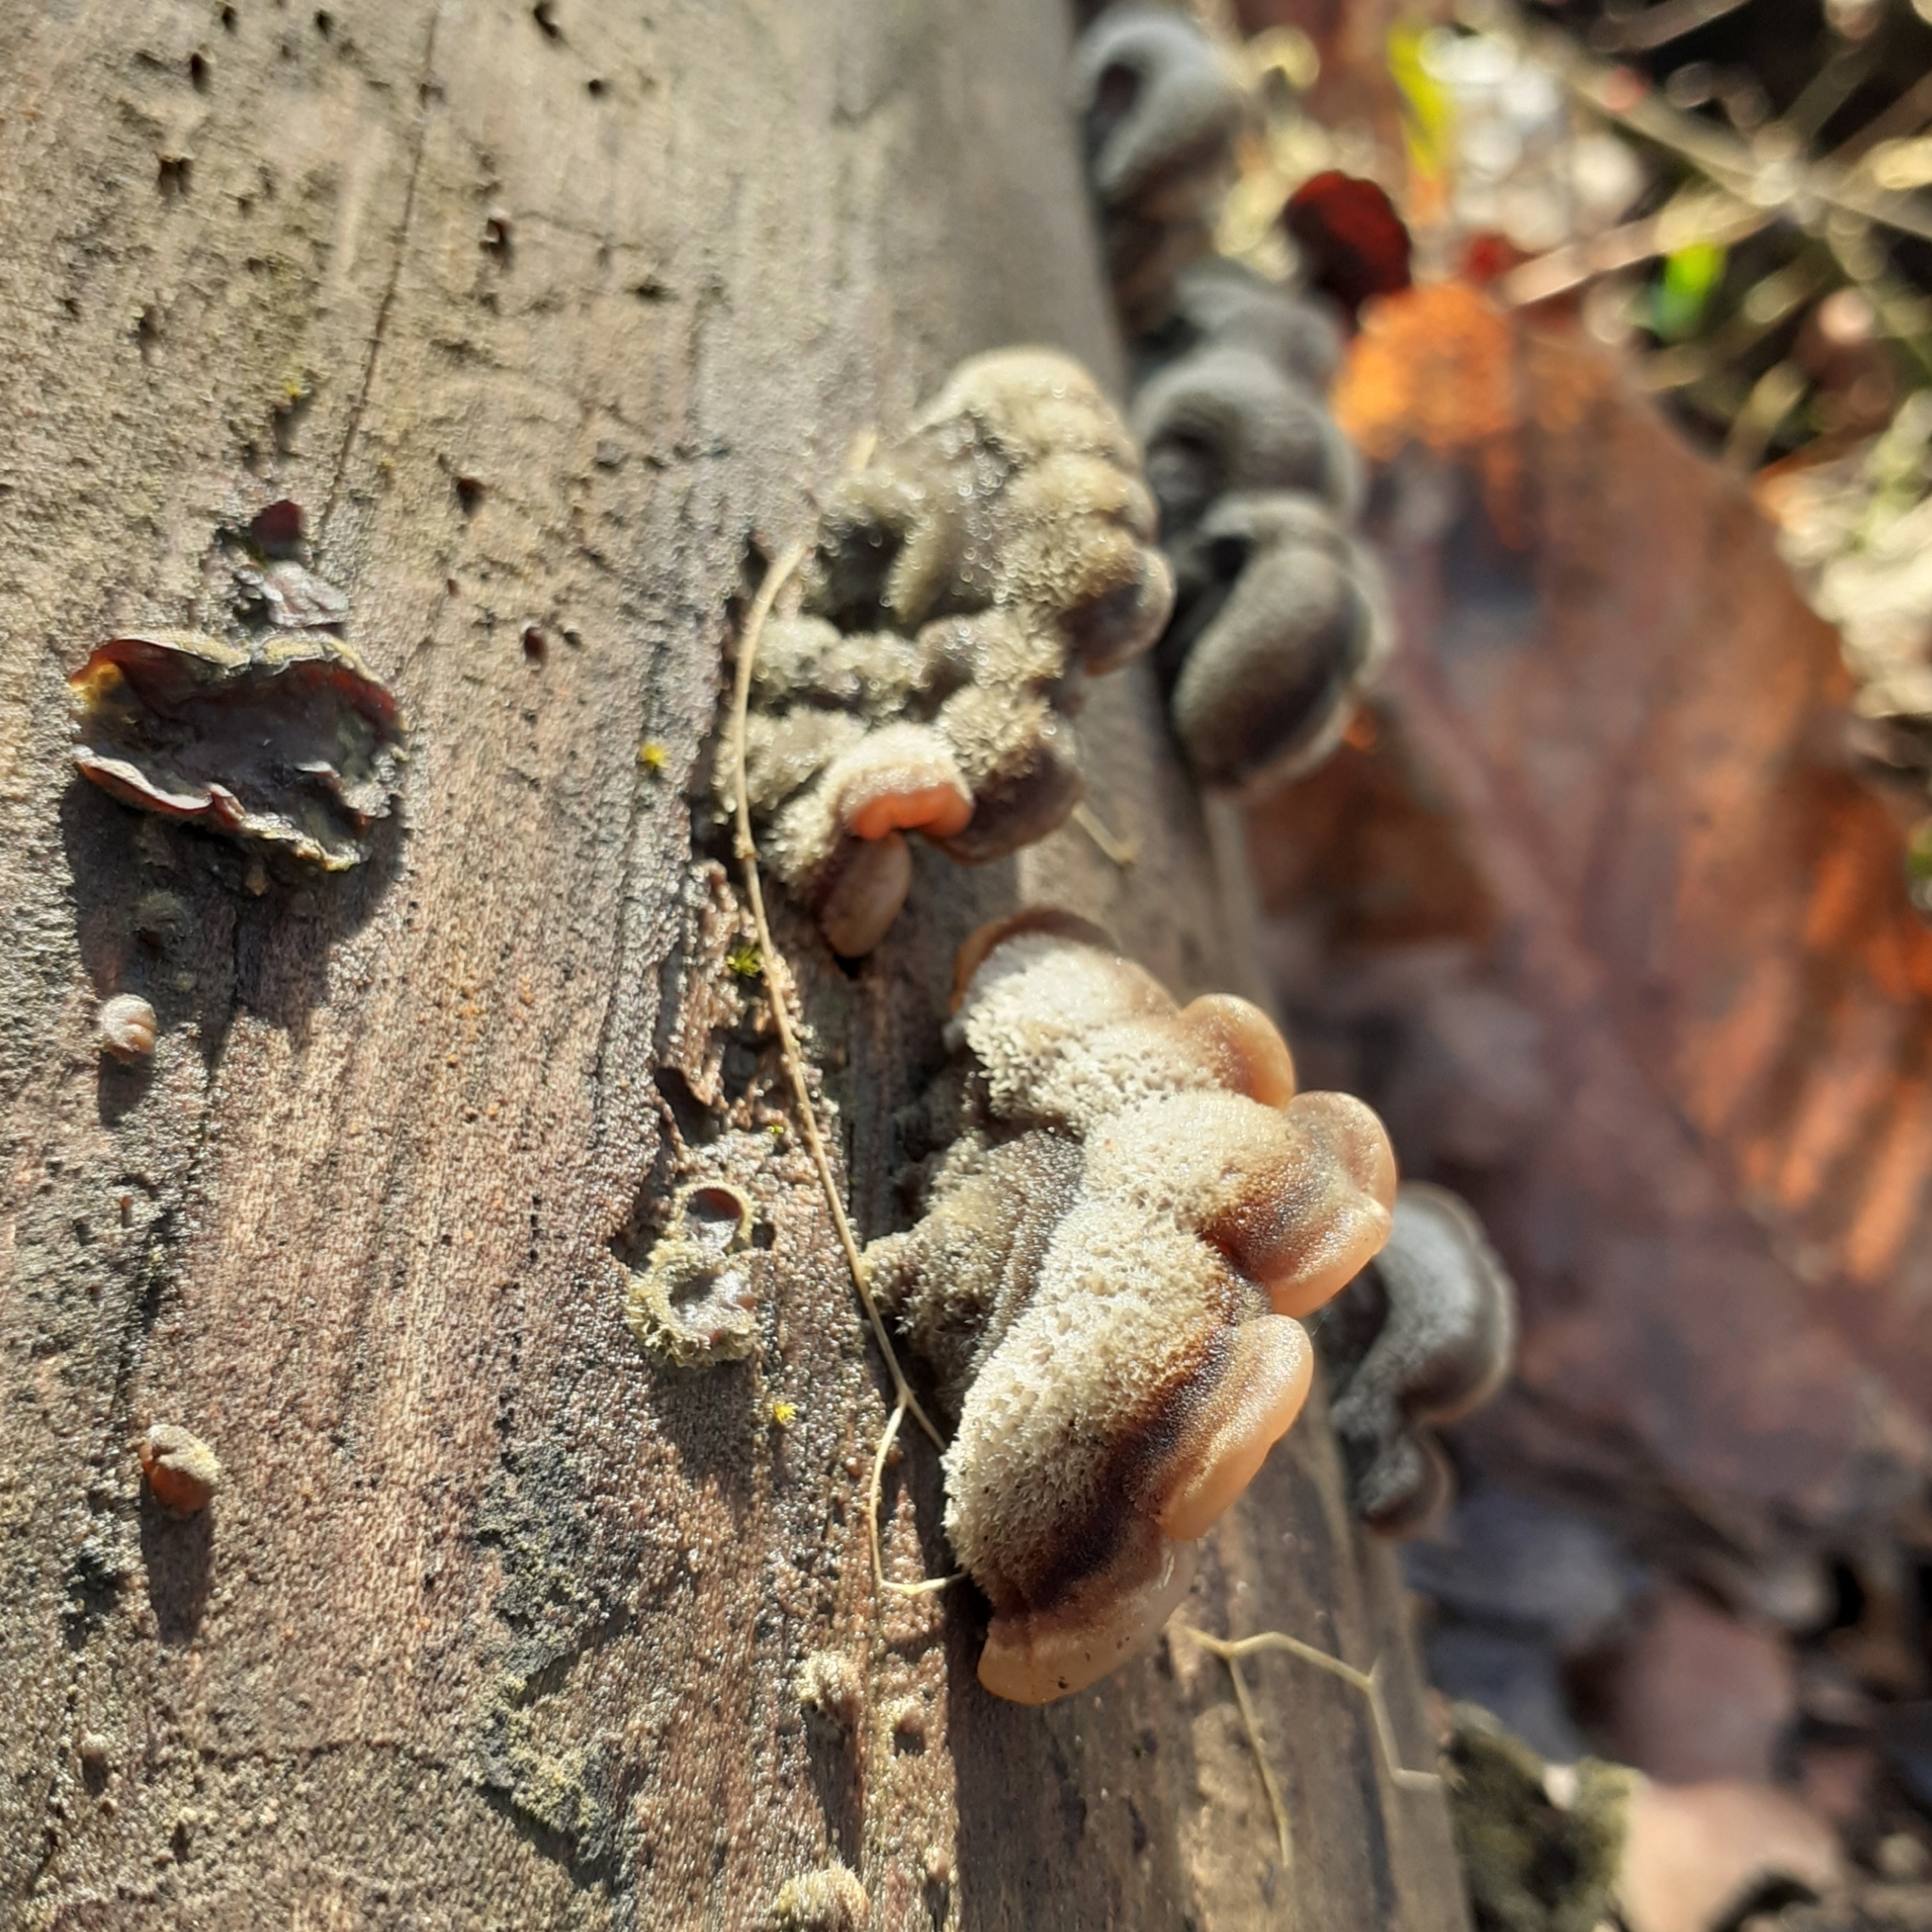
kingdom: Fungi
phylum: Basidiomycota
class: Agaricomycetes
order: Auriculariales
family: Auriculariaceae
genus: Auricularia
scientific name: Auricularia mesenterica
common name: Tripe fungus
